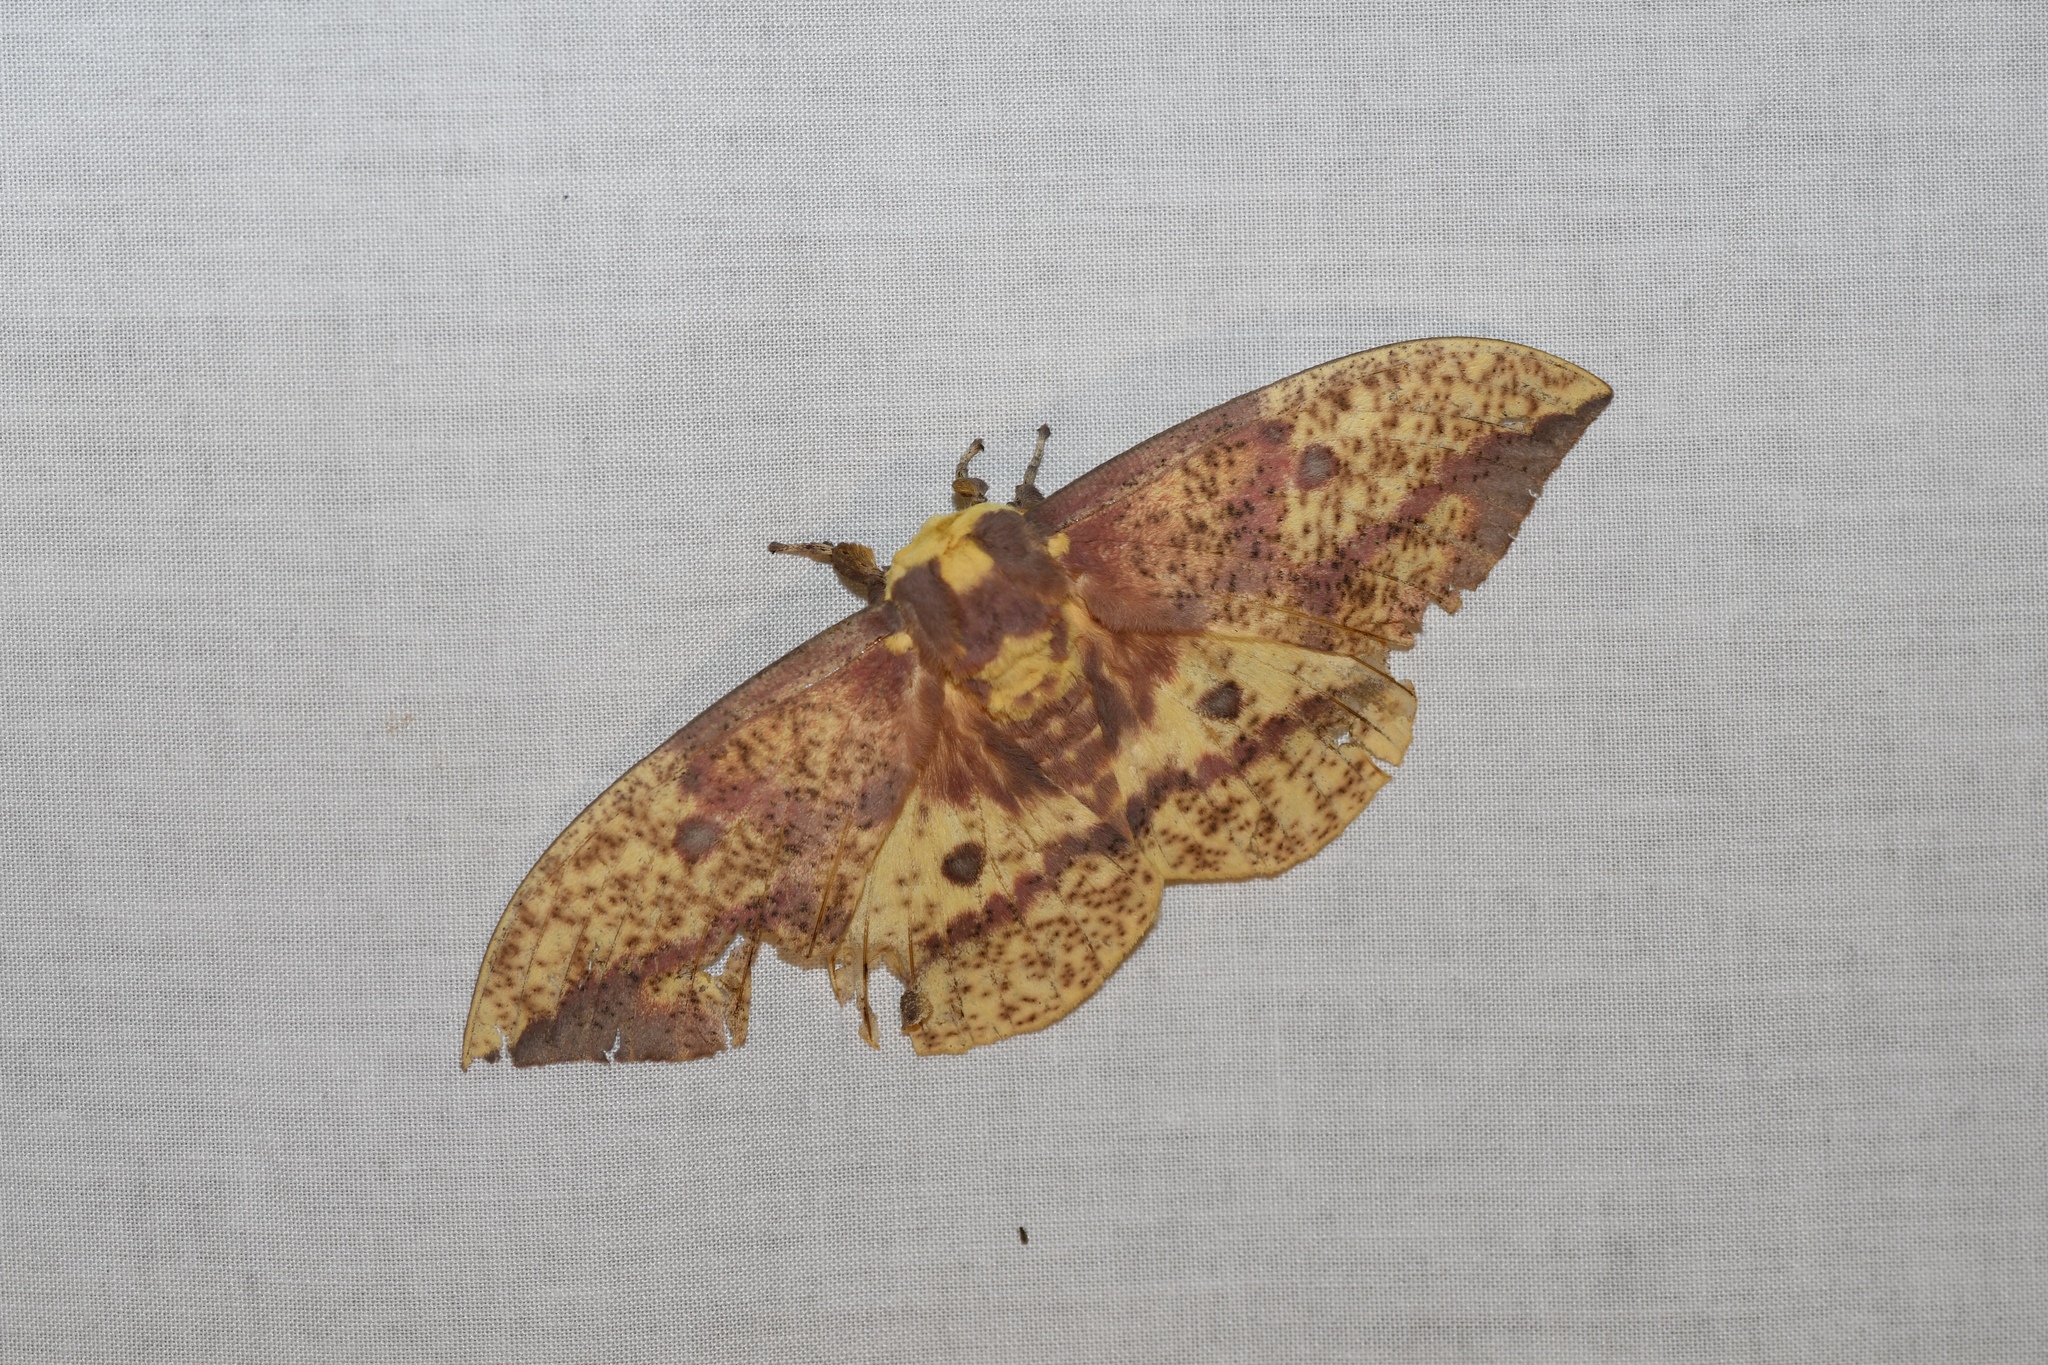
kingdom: Animalia
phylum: Arthropoda
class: Insecta
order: Lepidoptera
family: Saturniidae
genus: Eacles
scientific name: Eacles
